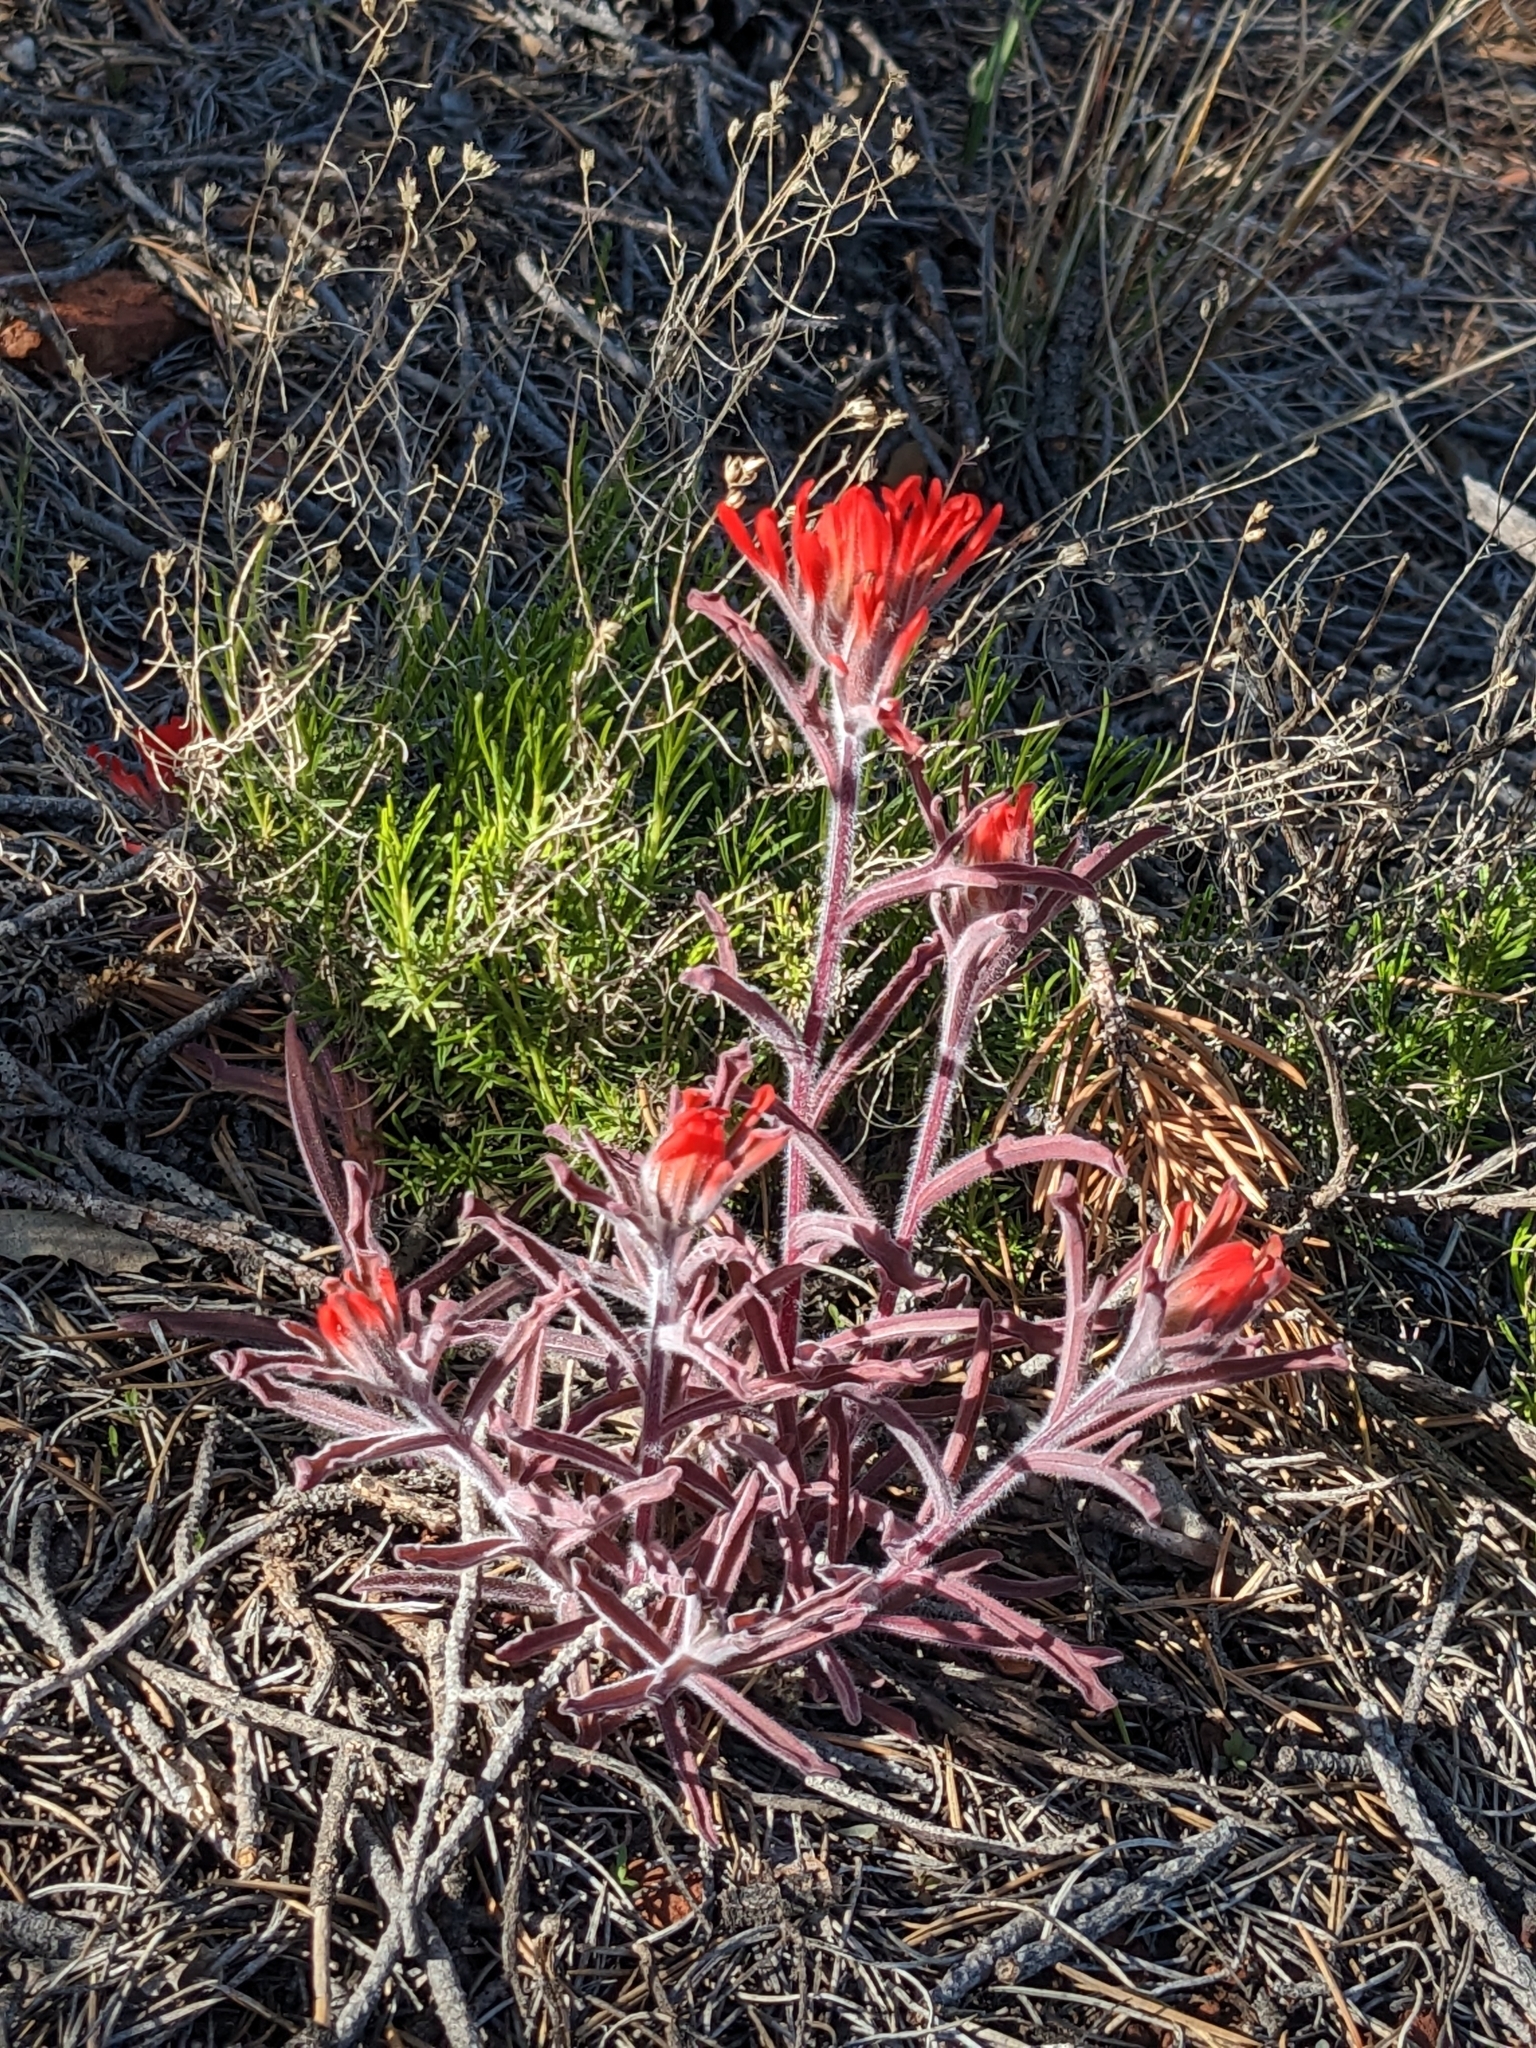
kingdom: Plantae
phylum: Tracheophyta
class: Magnoliopsida
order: Lamiales
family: Orobanchaceae
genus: Castilleja
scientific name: Castilleja chromosa
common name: Desert paintbrush
